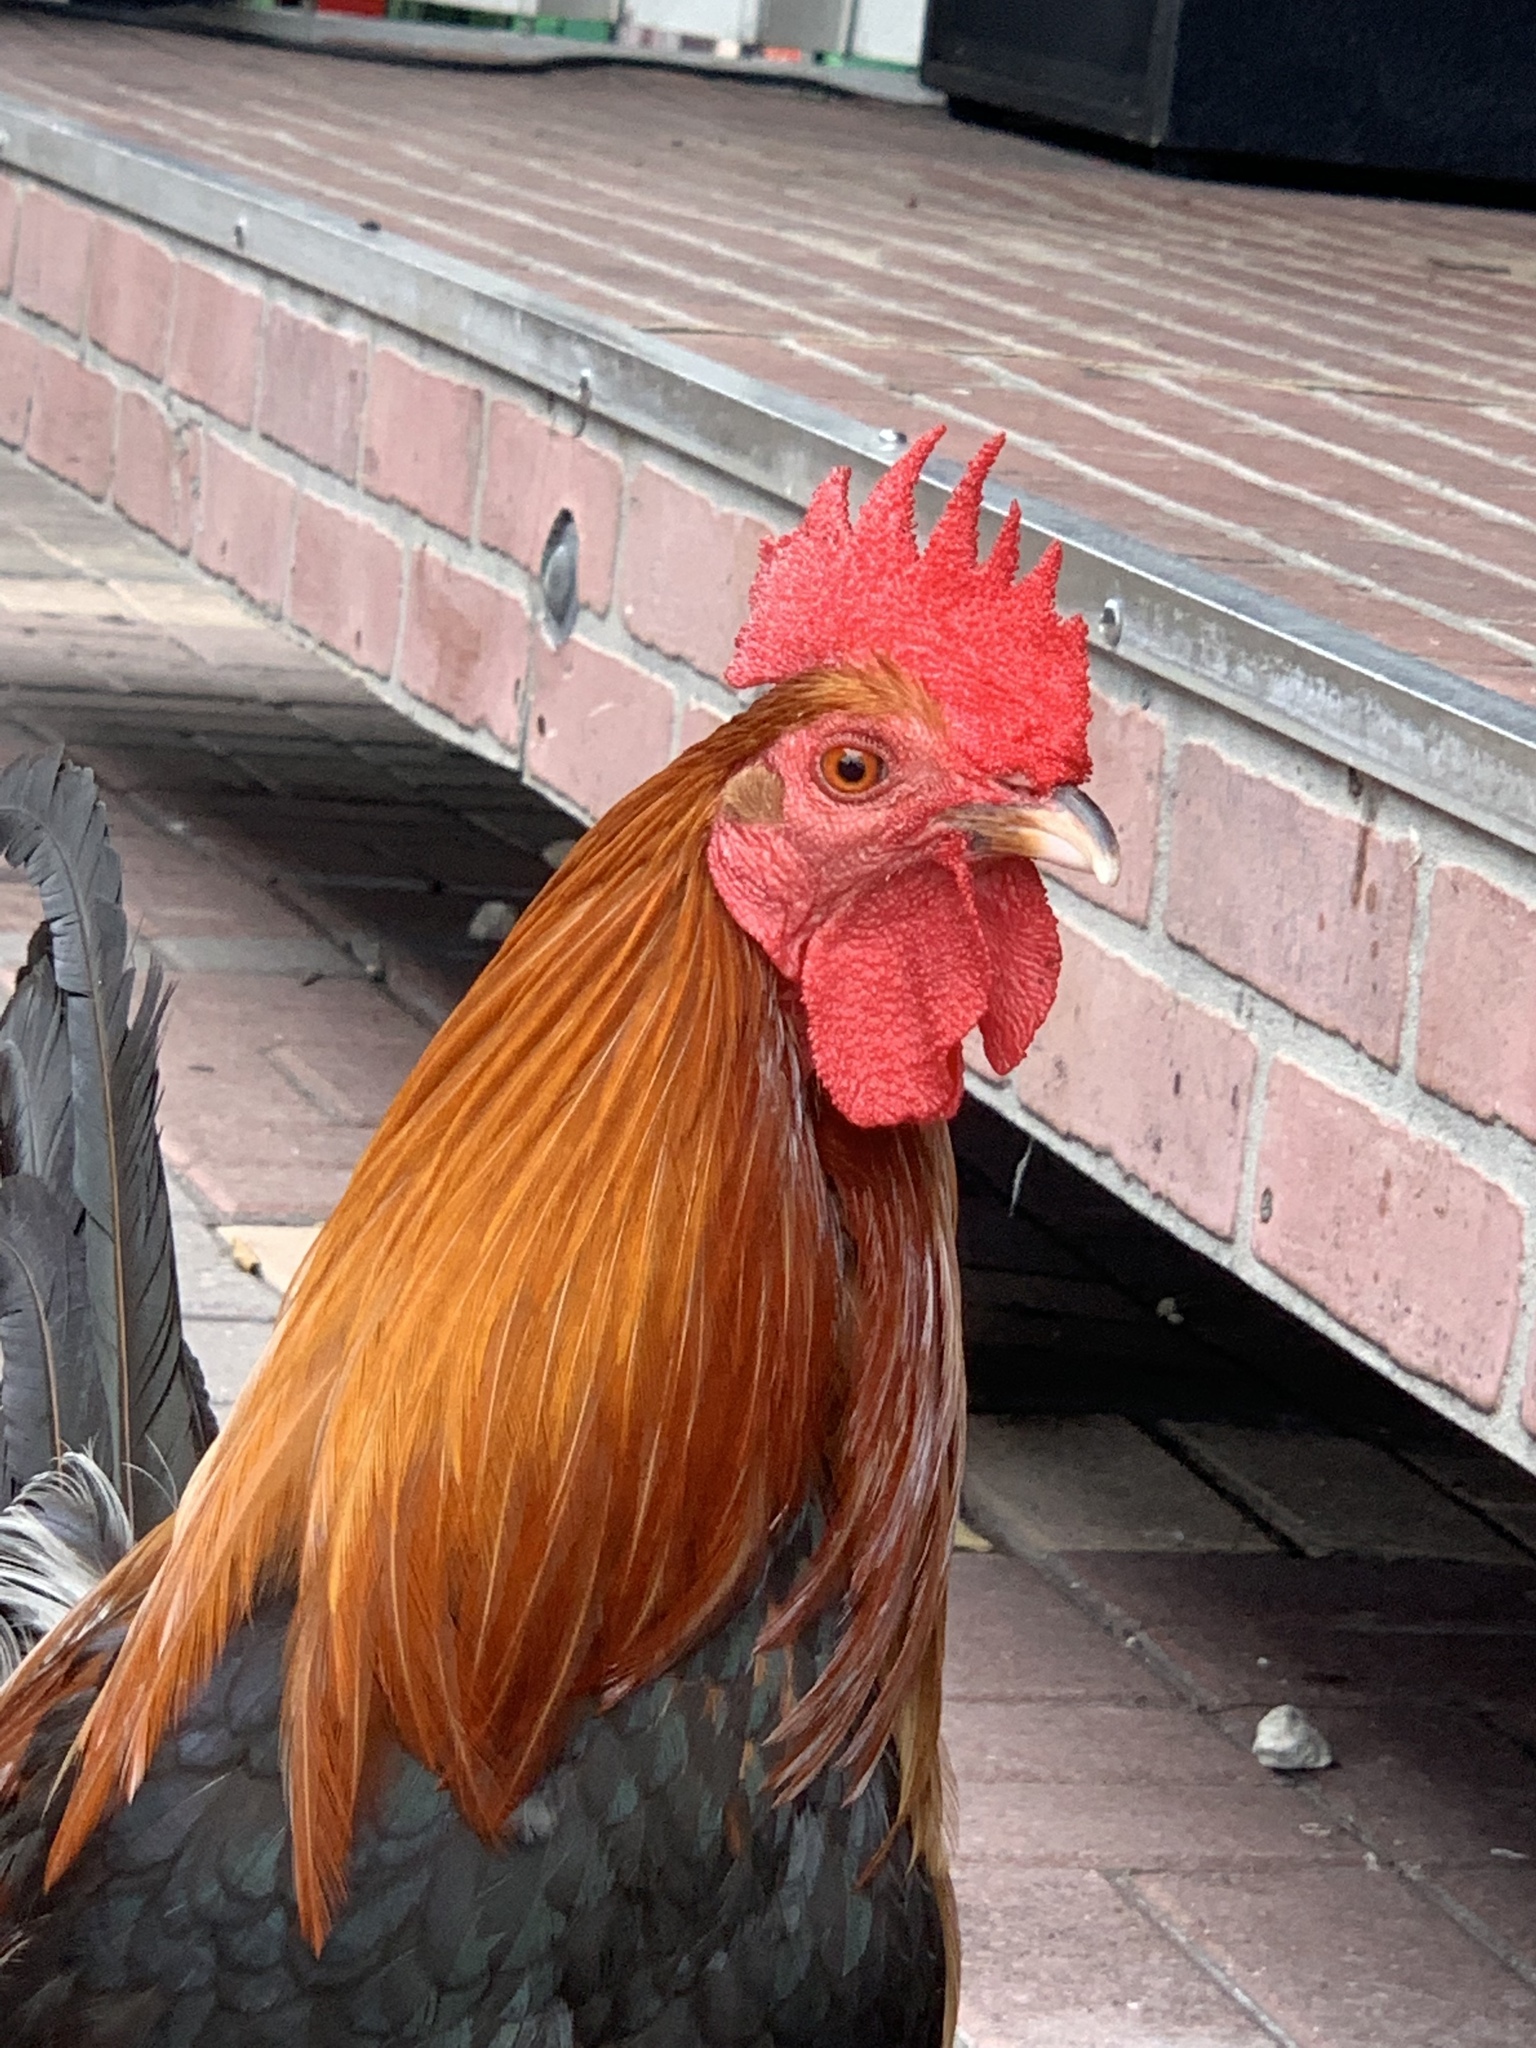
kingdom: Animalia
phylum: Chordata
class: Aves
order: Galliformes
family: Phasianidae
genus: Gallus
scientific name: Gallus gallus
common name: Red junglefowl
